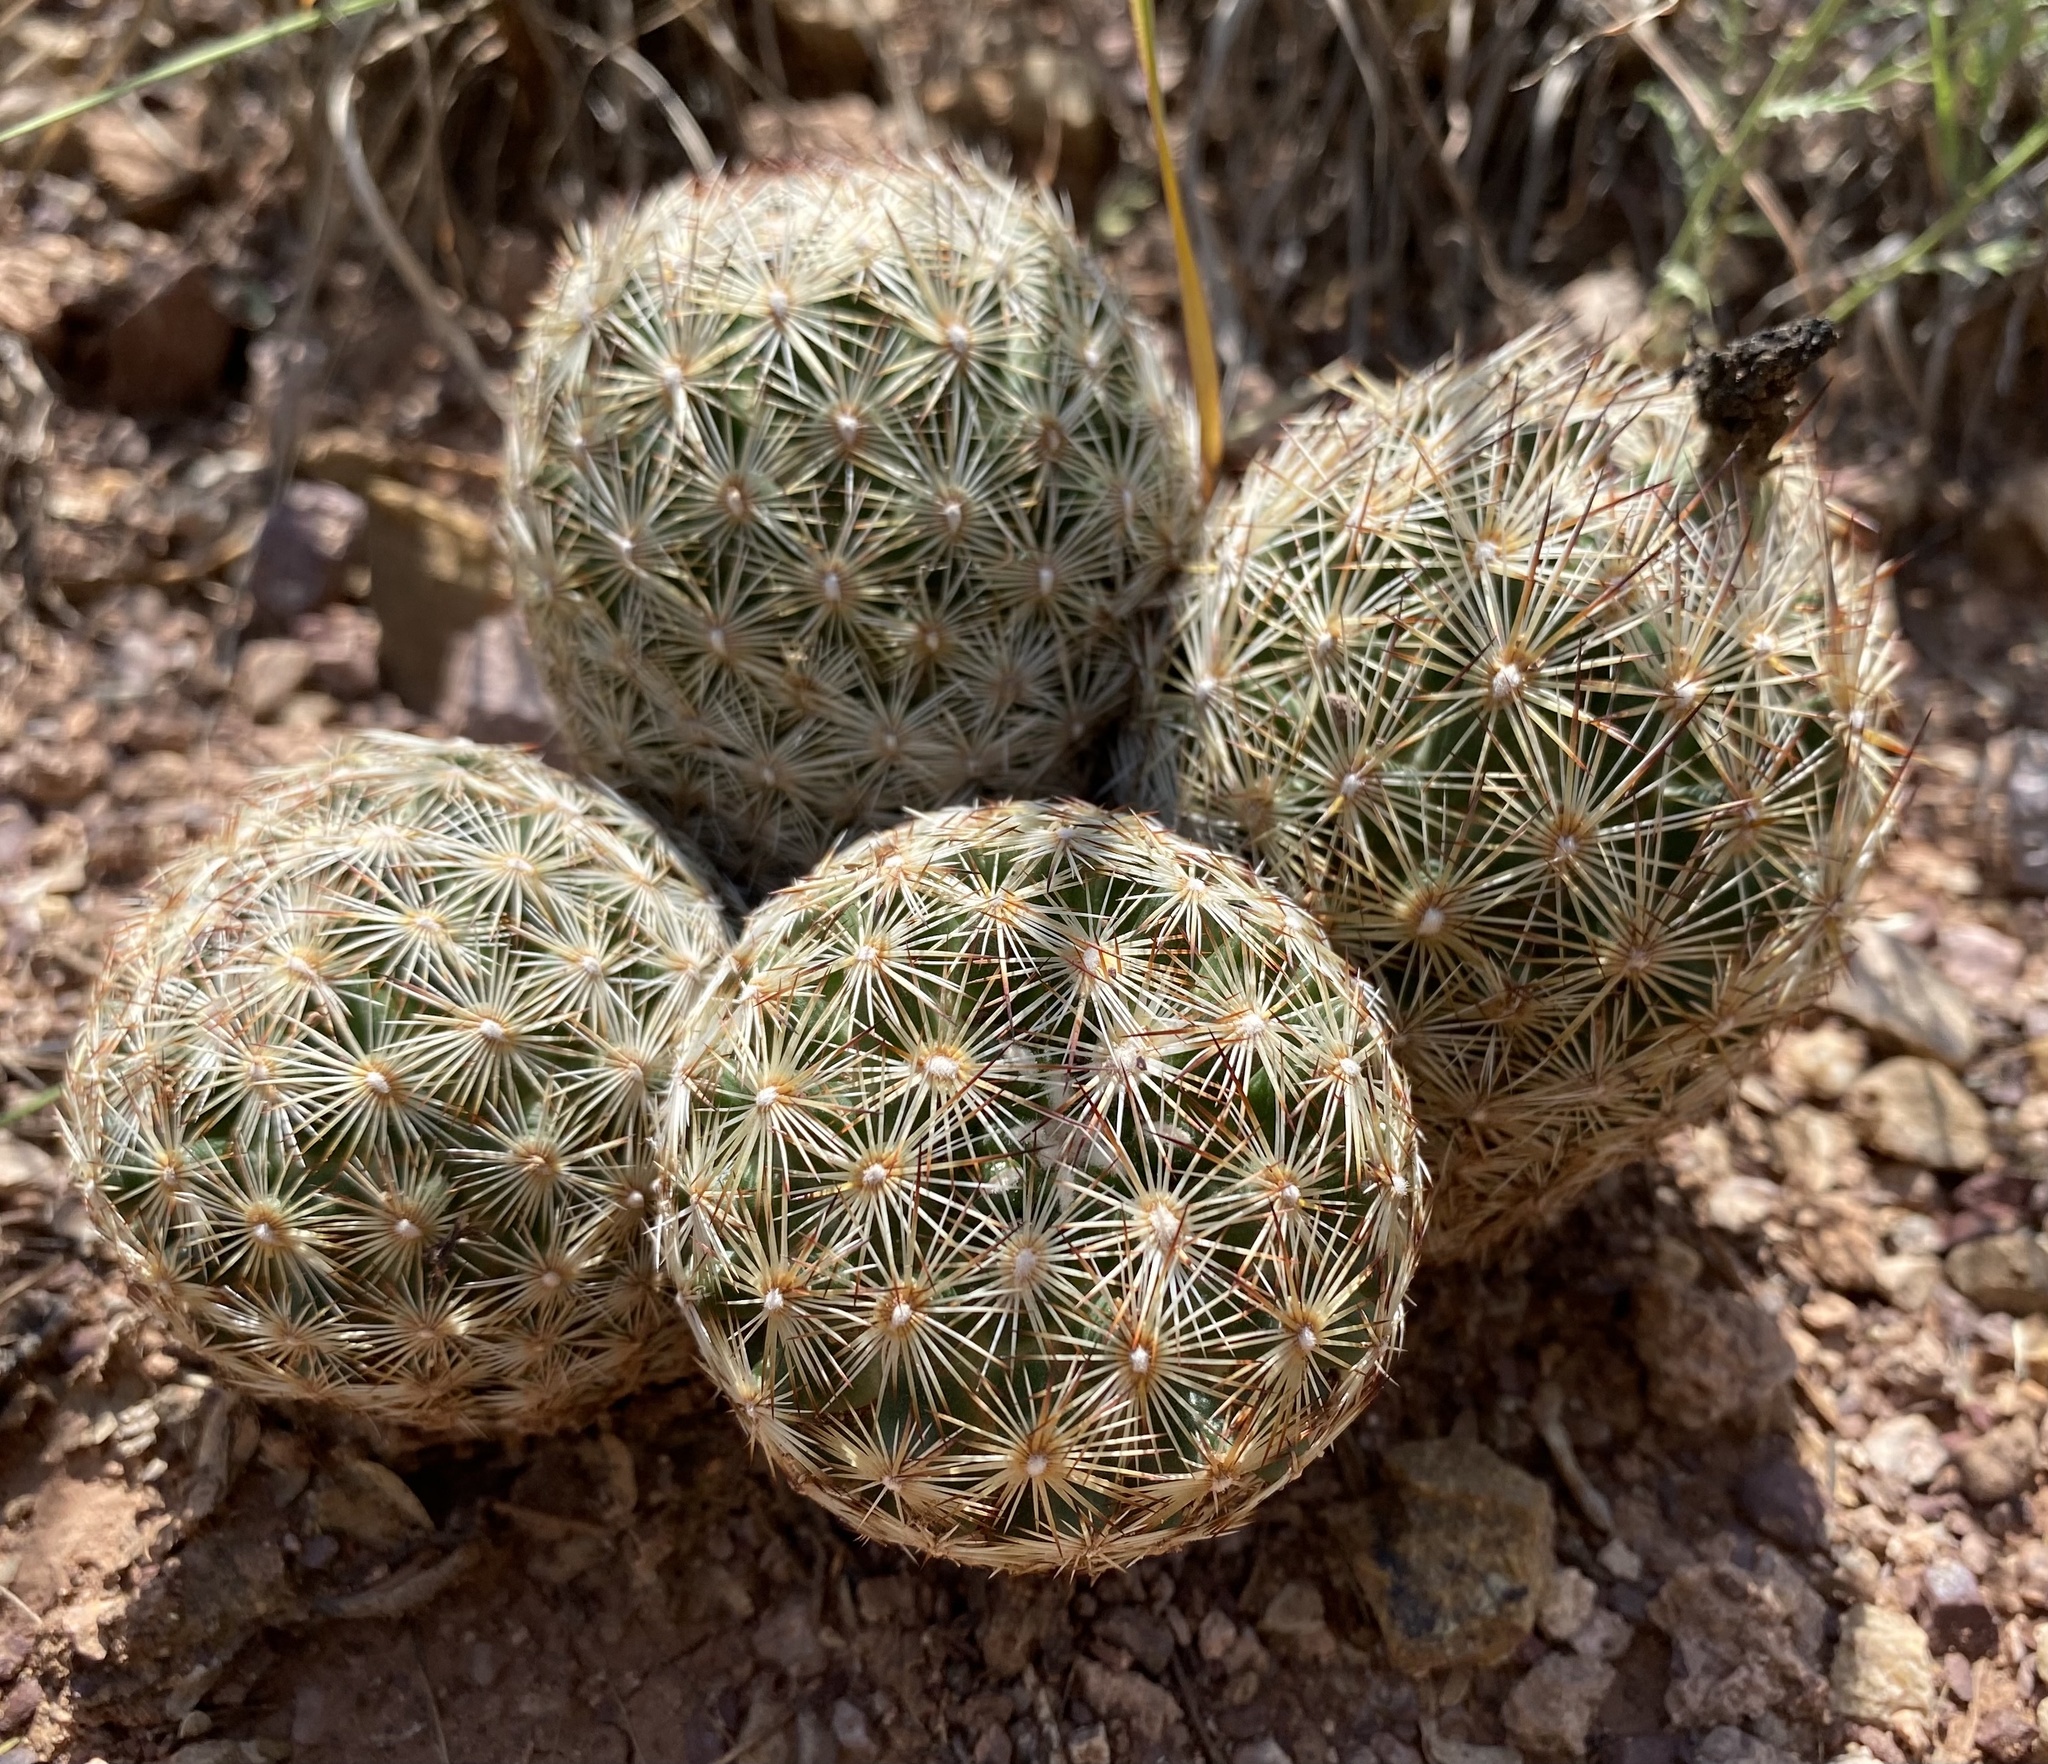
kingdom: Plantae
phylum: Tracheophyta
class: Magnoliopsida
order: Caryophyllales
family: Cactaceae
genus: Pelecyphora
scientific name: Pelecyphora vivipara
